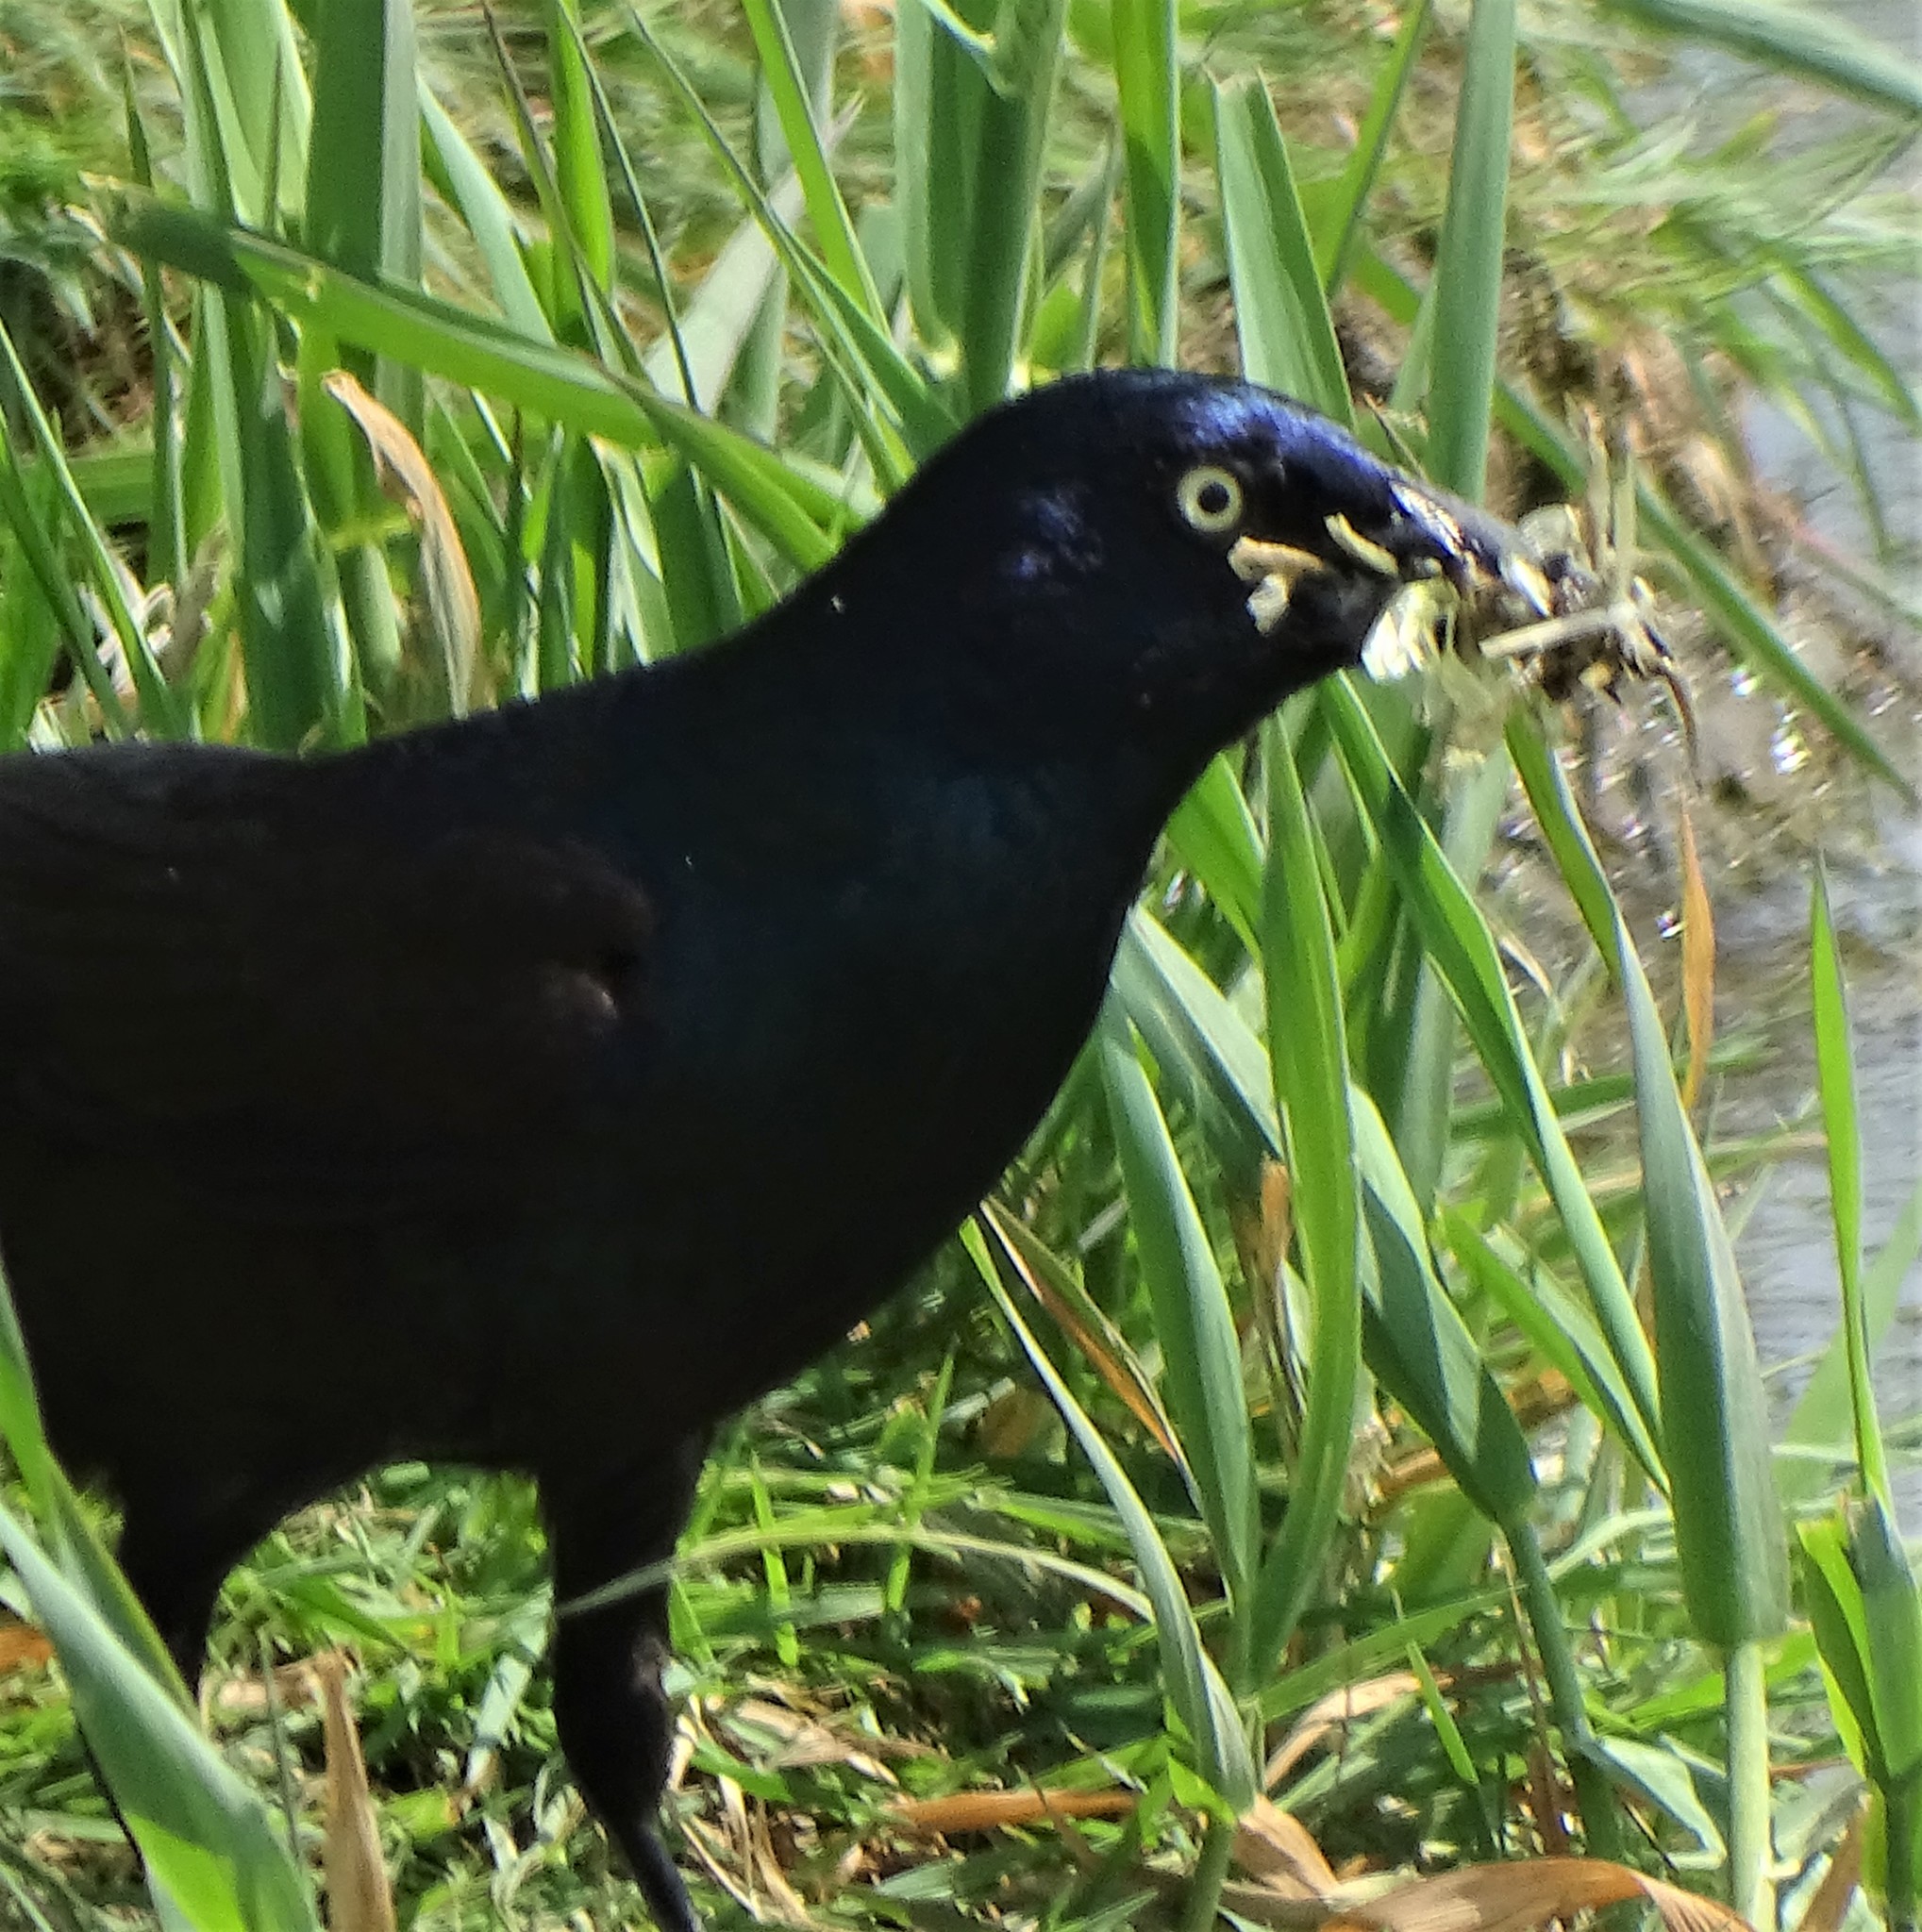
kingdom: Animalia
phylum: Chordata
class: Aves
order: Passeriformes
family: Icteridae
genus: Quiscalus
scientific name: Quiscalus quiscula
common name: Common grackle
